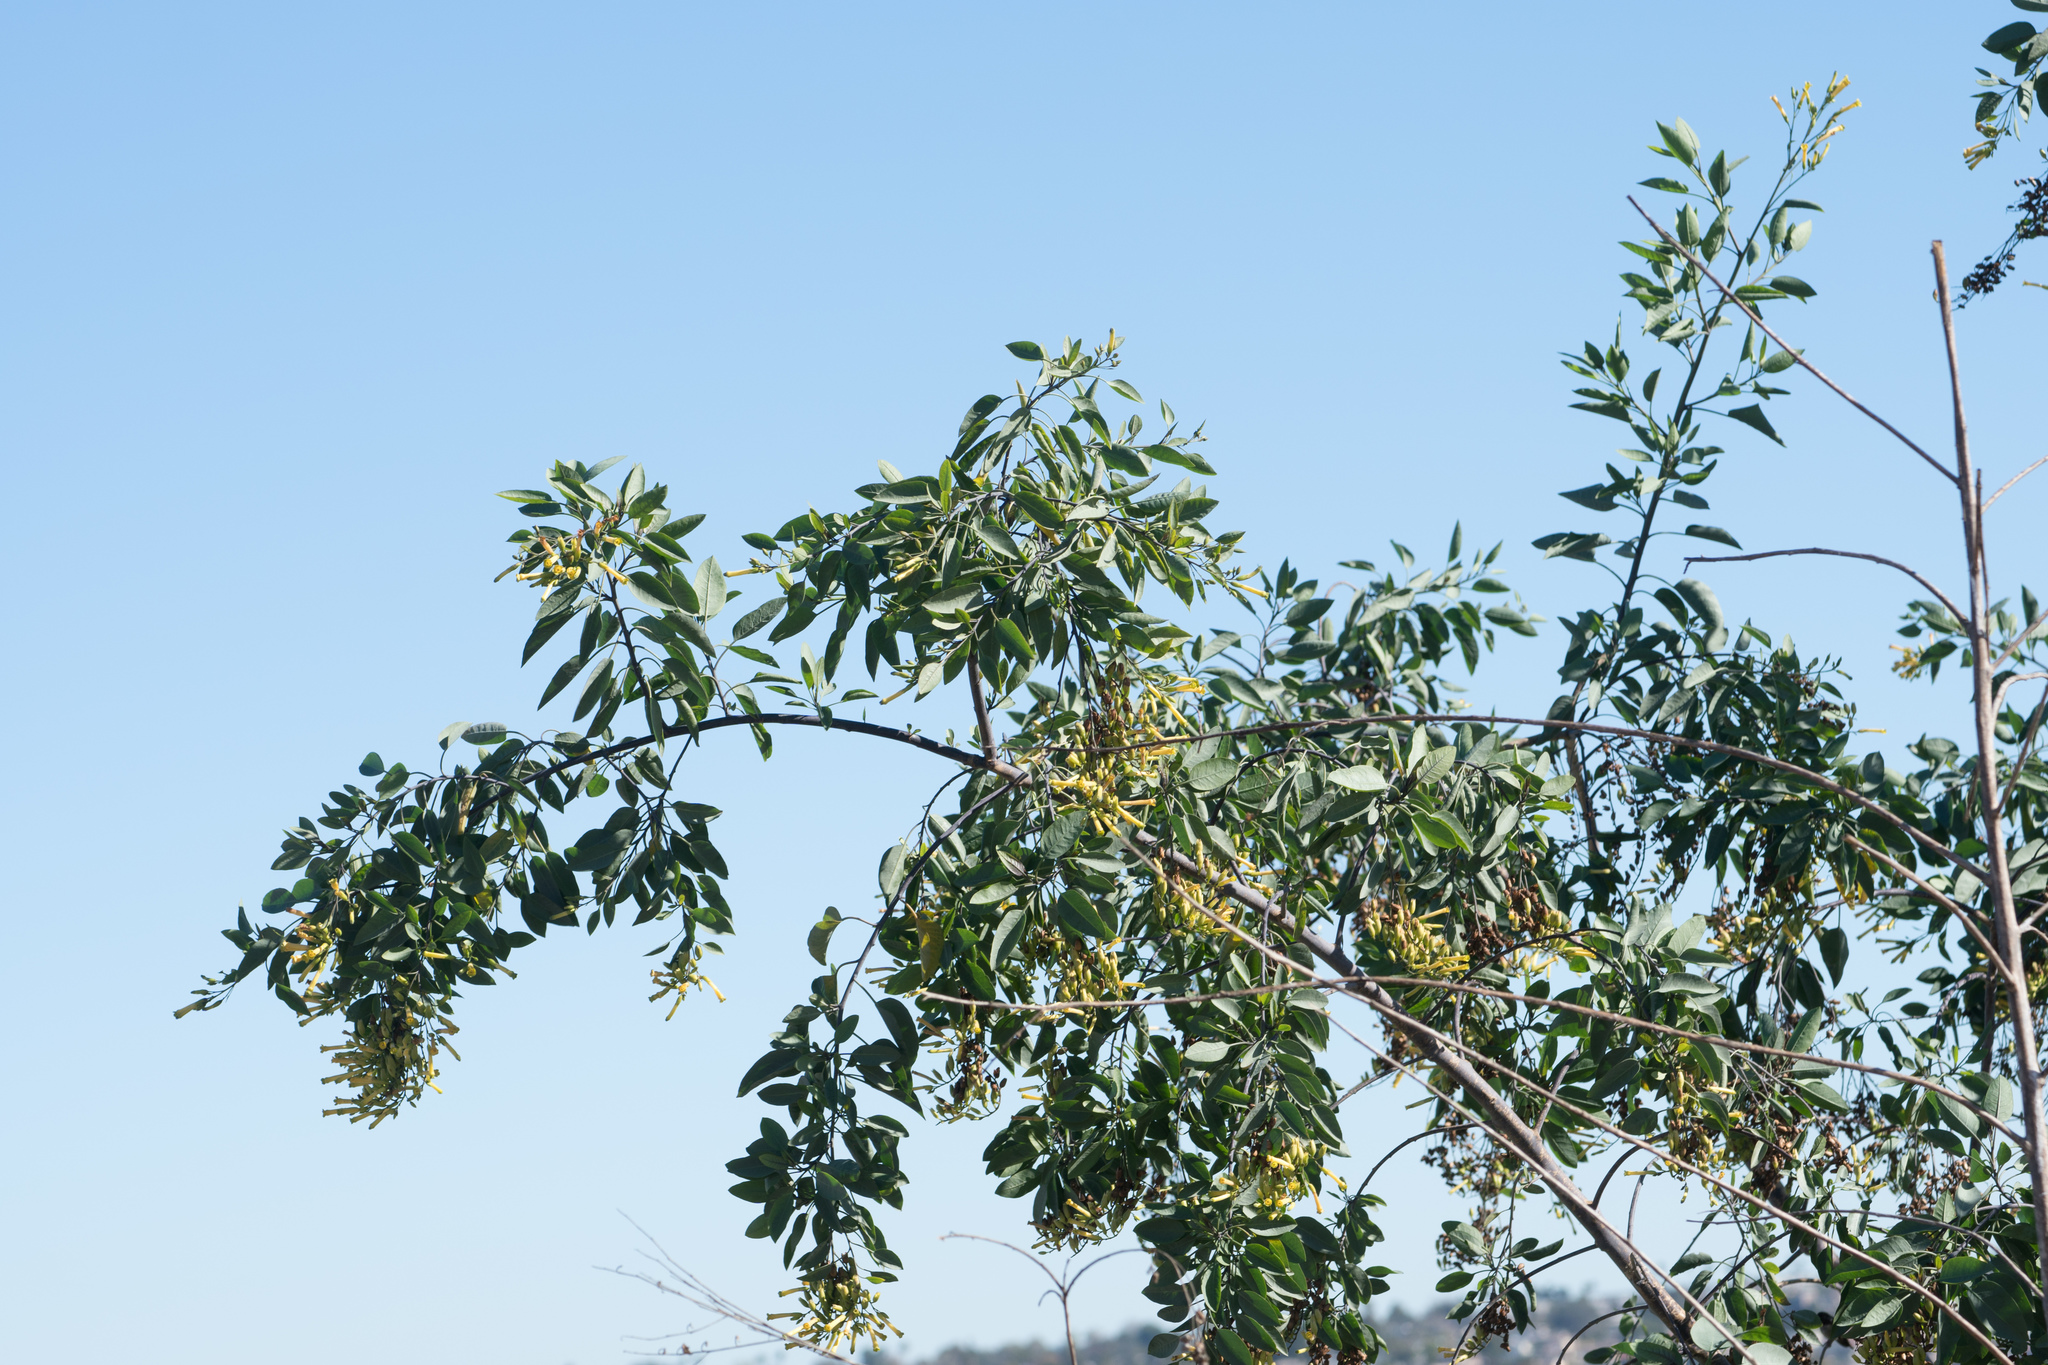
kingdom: Plantae
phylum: Tracheophyta
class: Magnoliopsida
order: Solanales
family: Solanaceae
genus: Nicotiana
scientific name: Nicotiana glauca
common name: Tree tobacco
